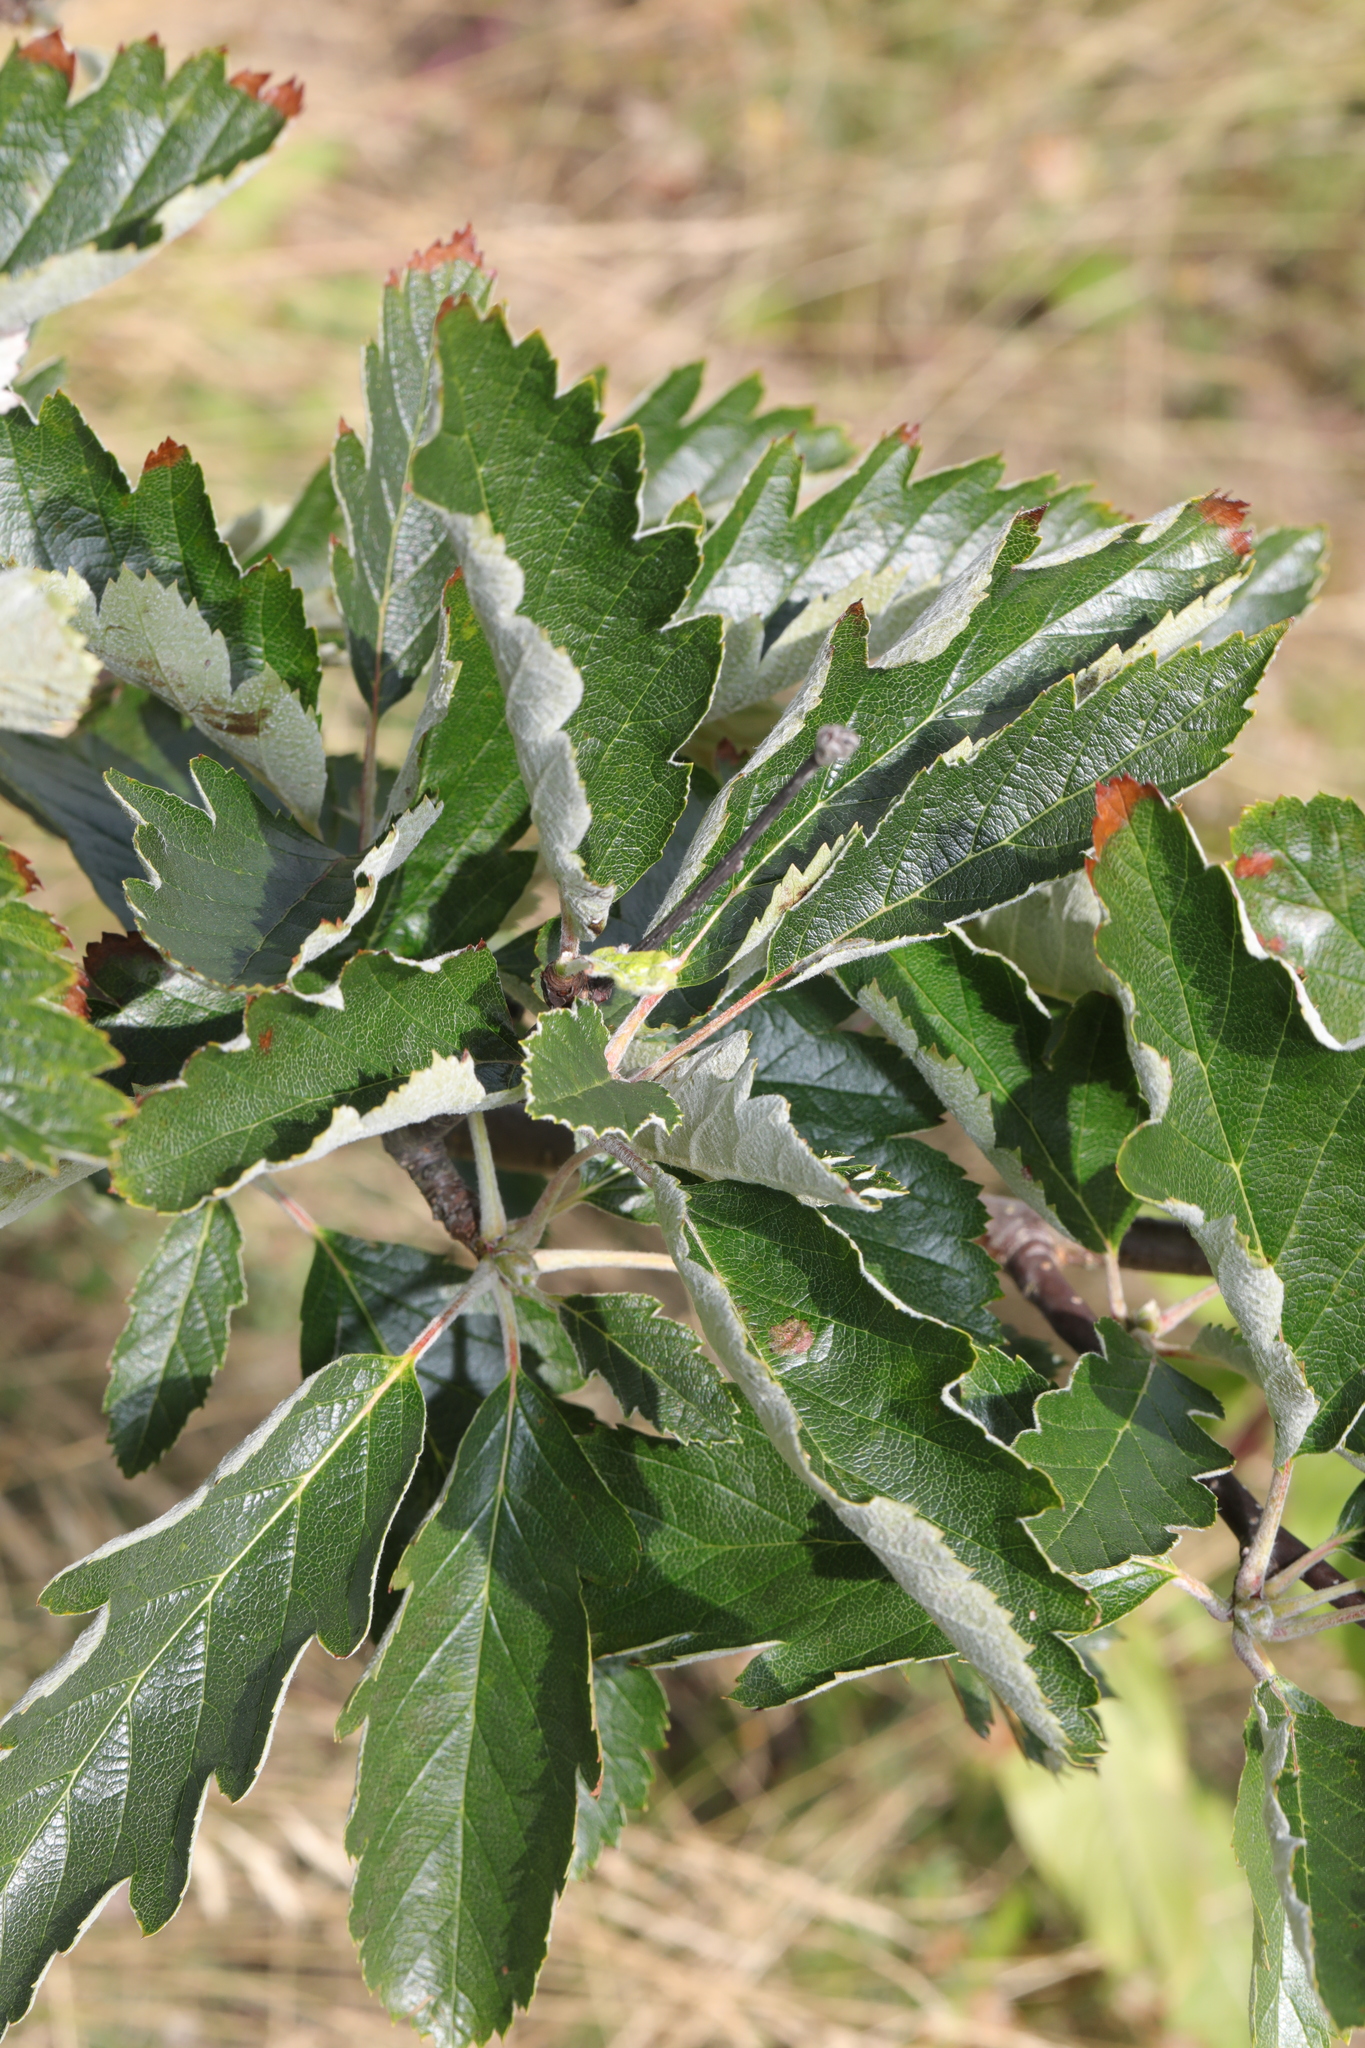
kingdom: Plantae
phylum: Tracheophyta
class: Magnoliopsida
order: Rosales
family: Rosaceae
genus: Scandosorbus
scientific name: Scandosorbus intermedia
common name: Swedish whitebeam
